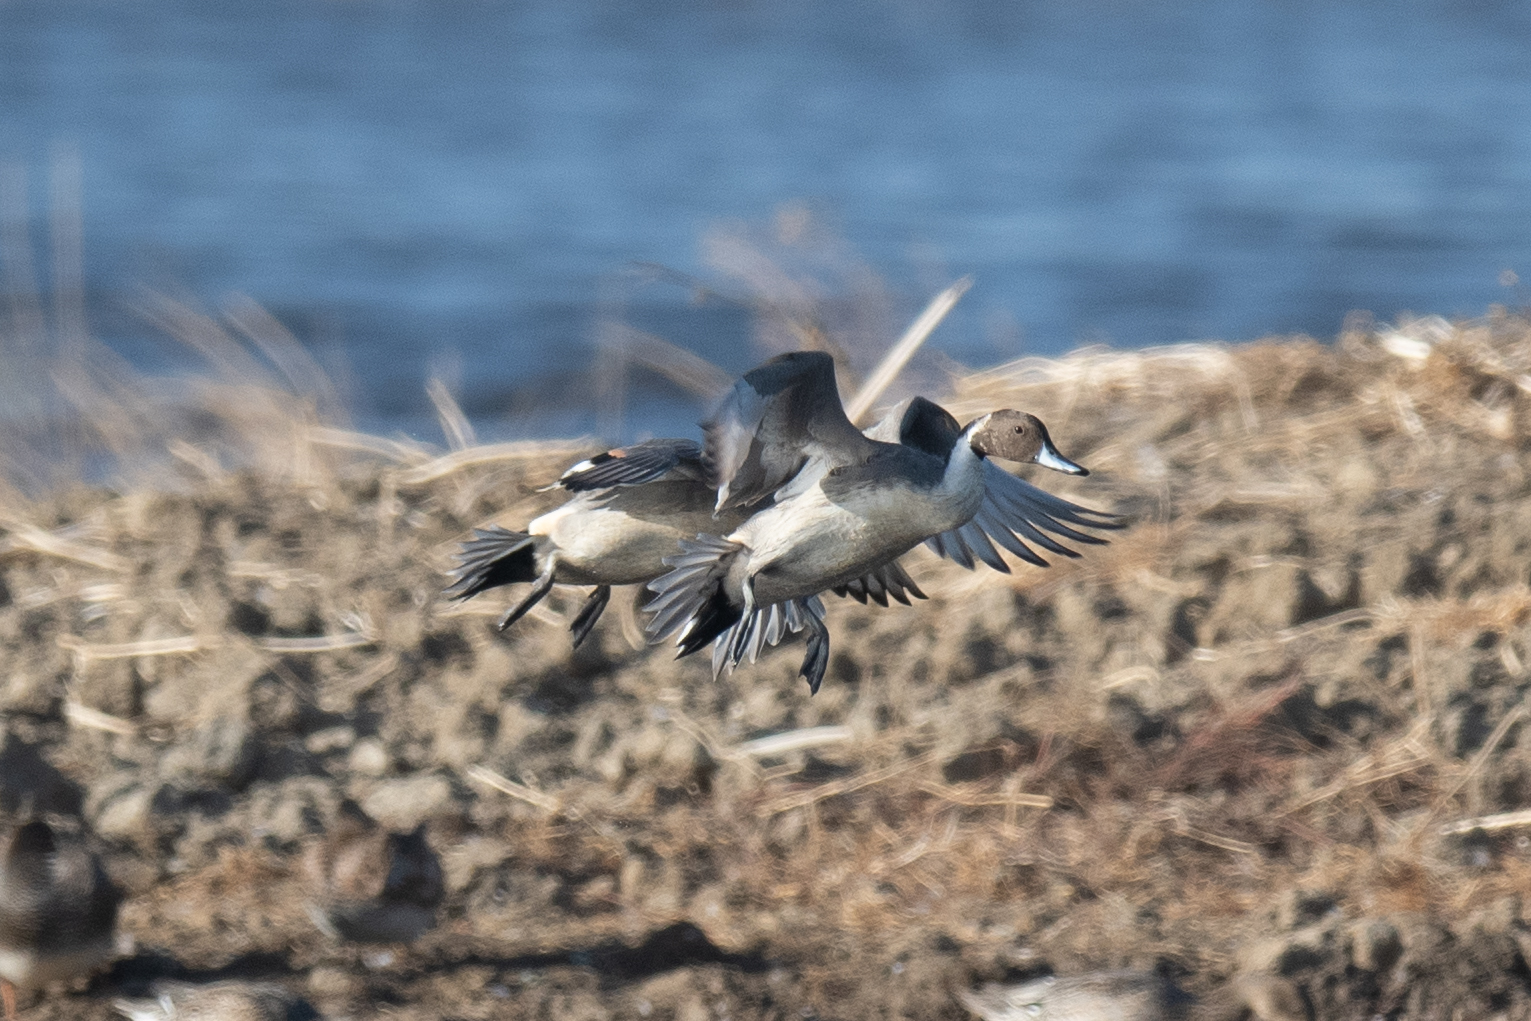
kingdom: Animalia
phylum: Chordata
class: Aves
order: Anseriformes
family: Anatidae
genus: Anas
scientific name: Anas acuta
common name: Northern pintail
